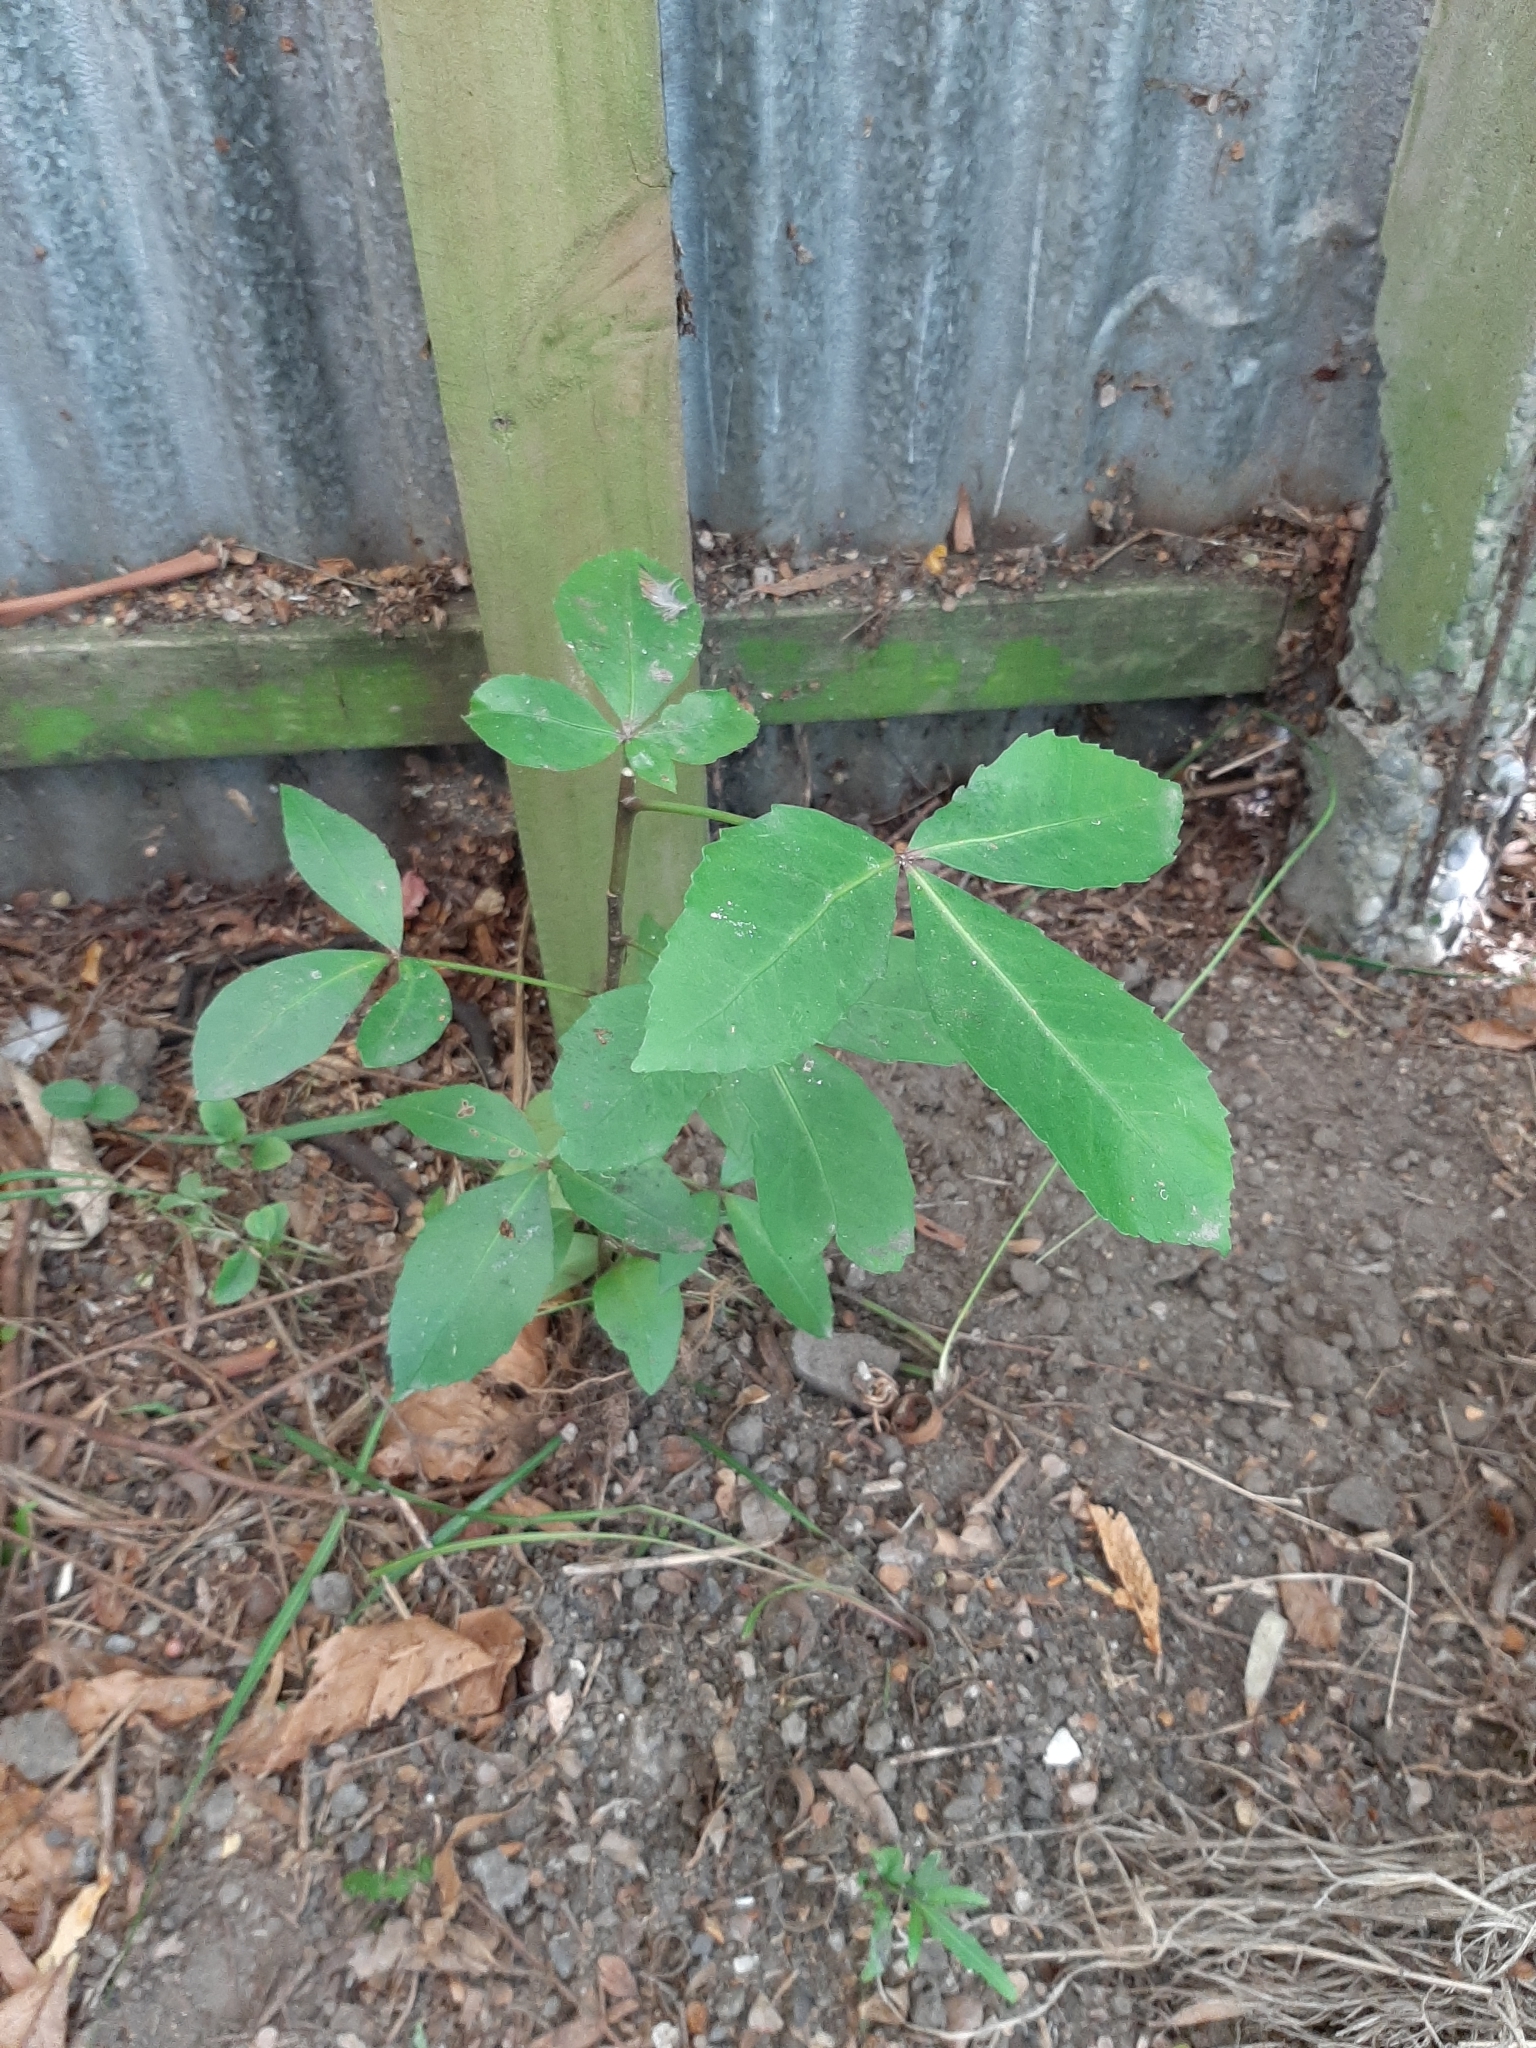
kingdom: Plantae
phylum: Tracheophyta
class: Magnoliopsida
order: Apiales
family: Araliaceae
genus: Pseudopanax
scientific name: Pseudopanax lessonii
